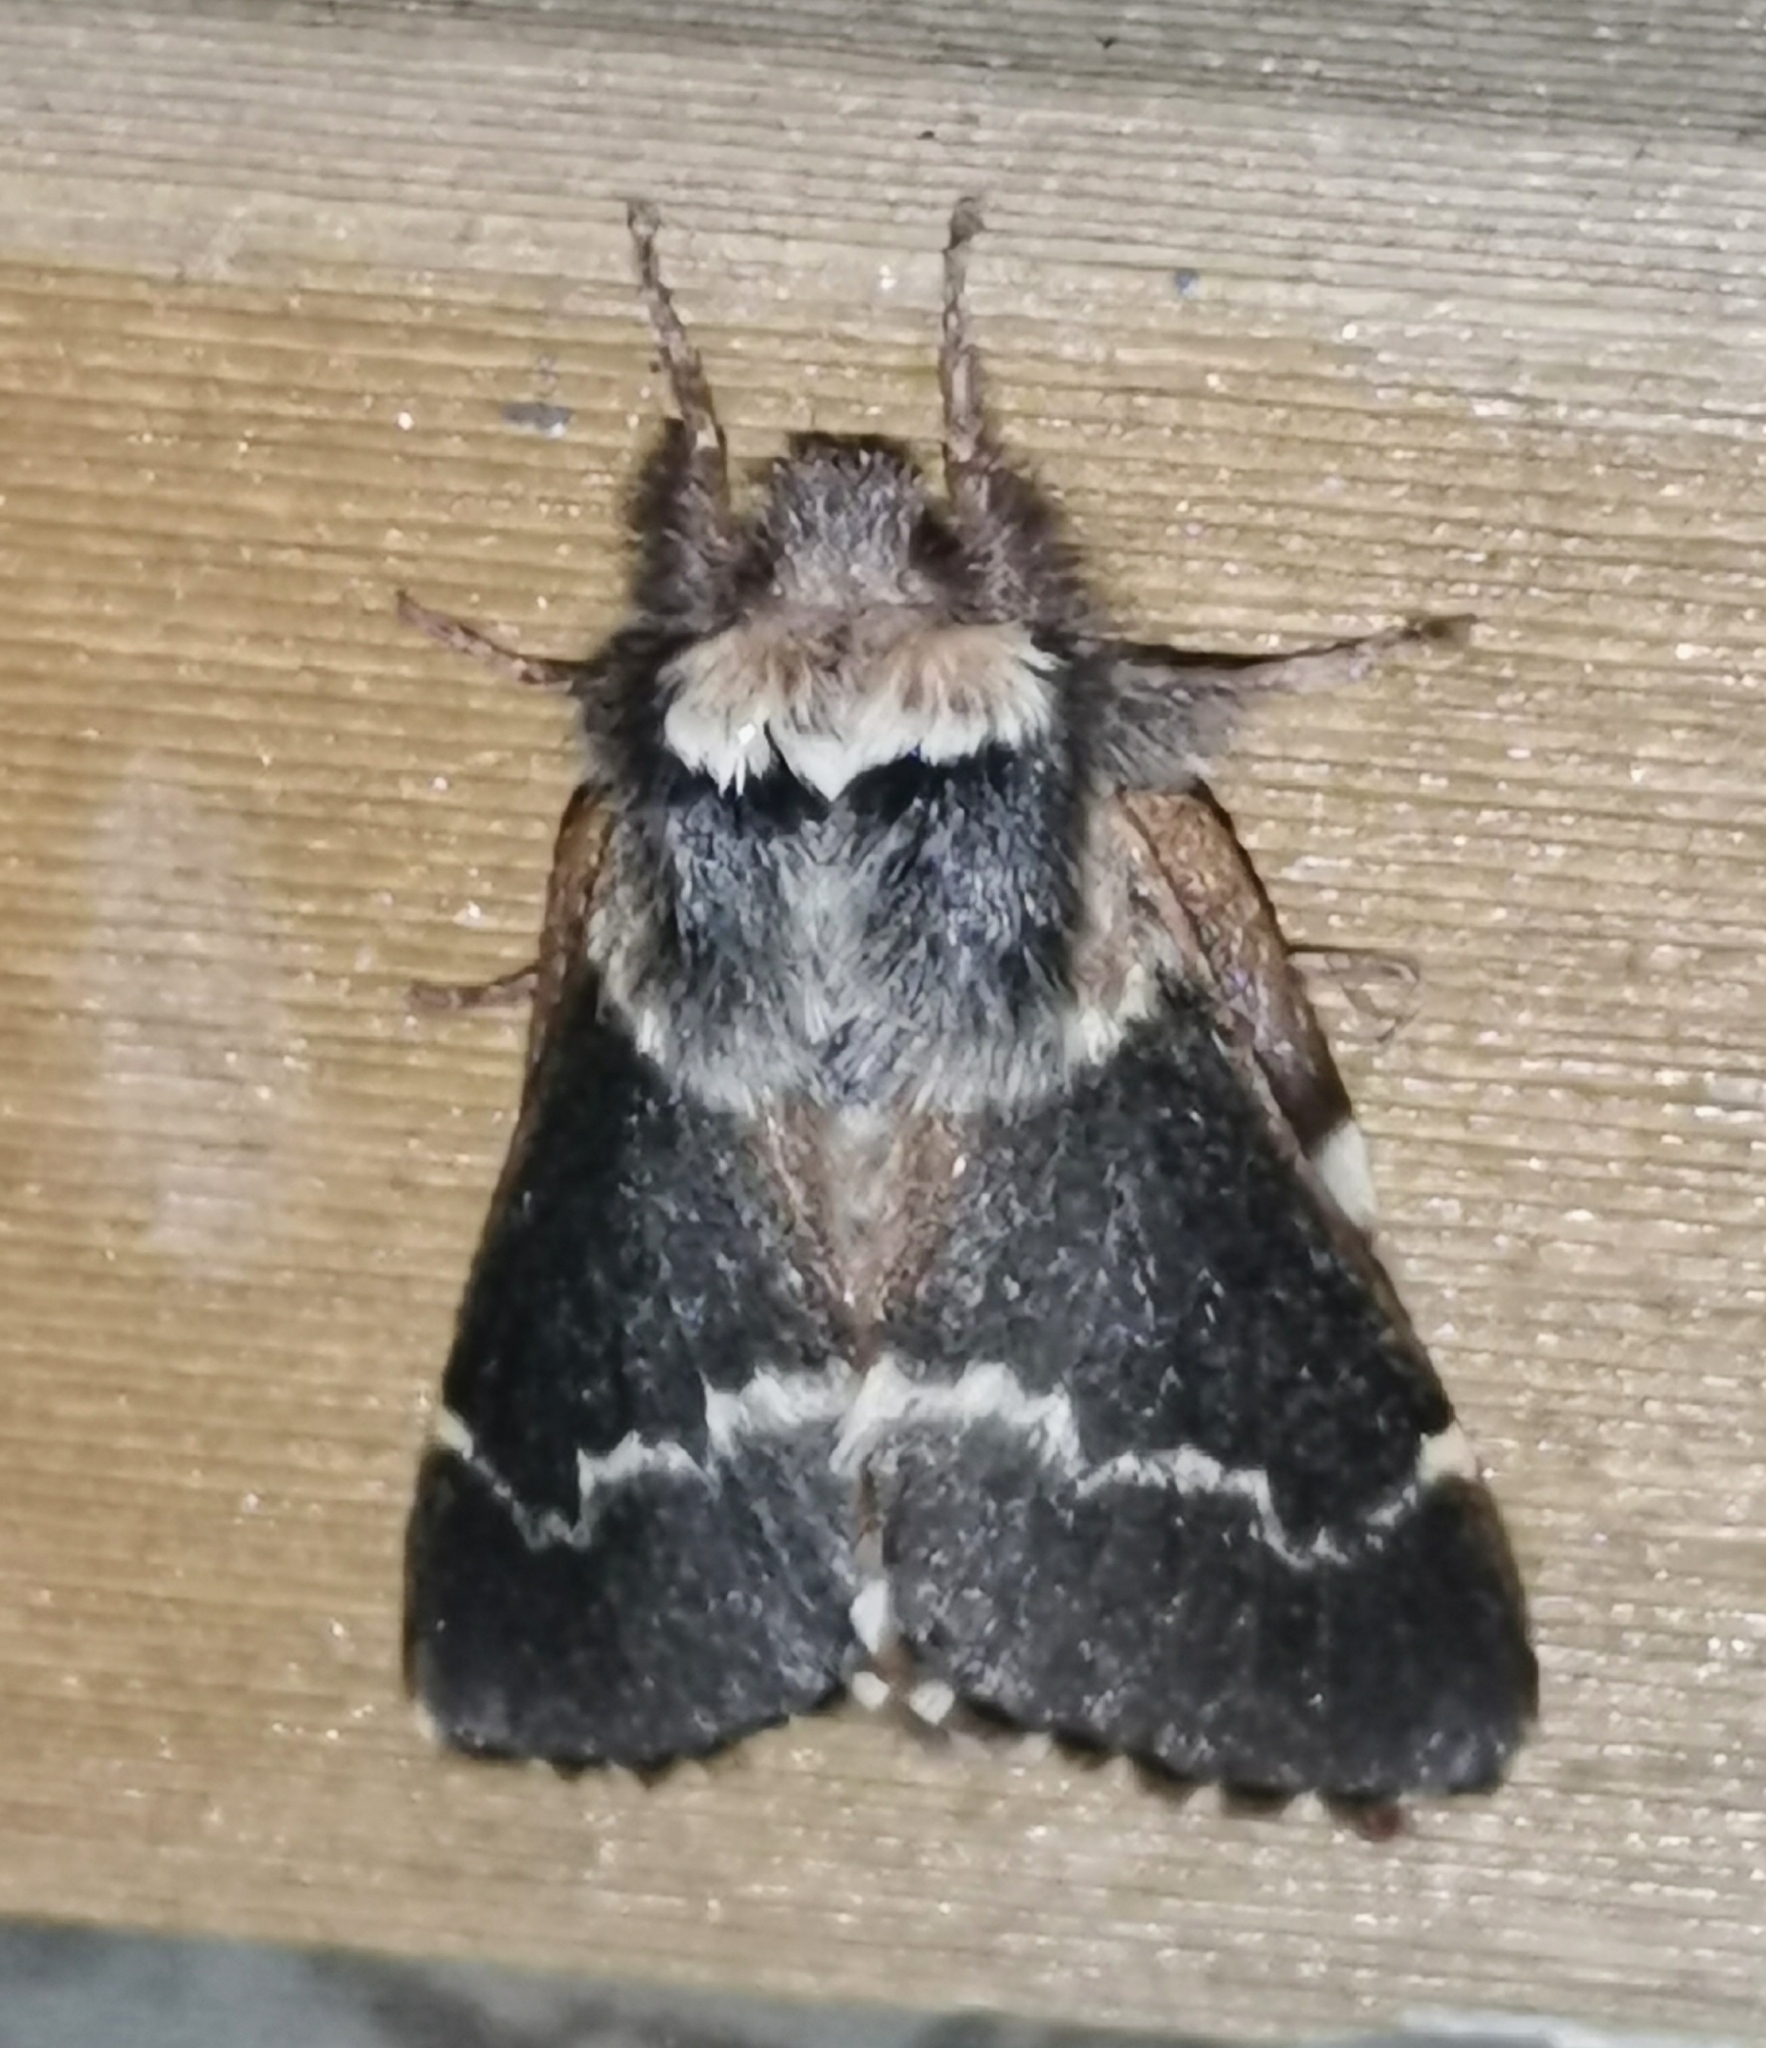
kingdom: Animalia
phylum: Arthropoda
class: Insecta
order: Lepidoptera
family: Lasiocampidae
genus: Poecilocampa
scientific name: Poecilocampa populi
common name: December moth
